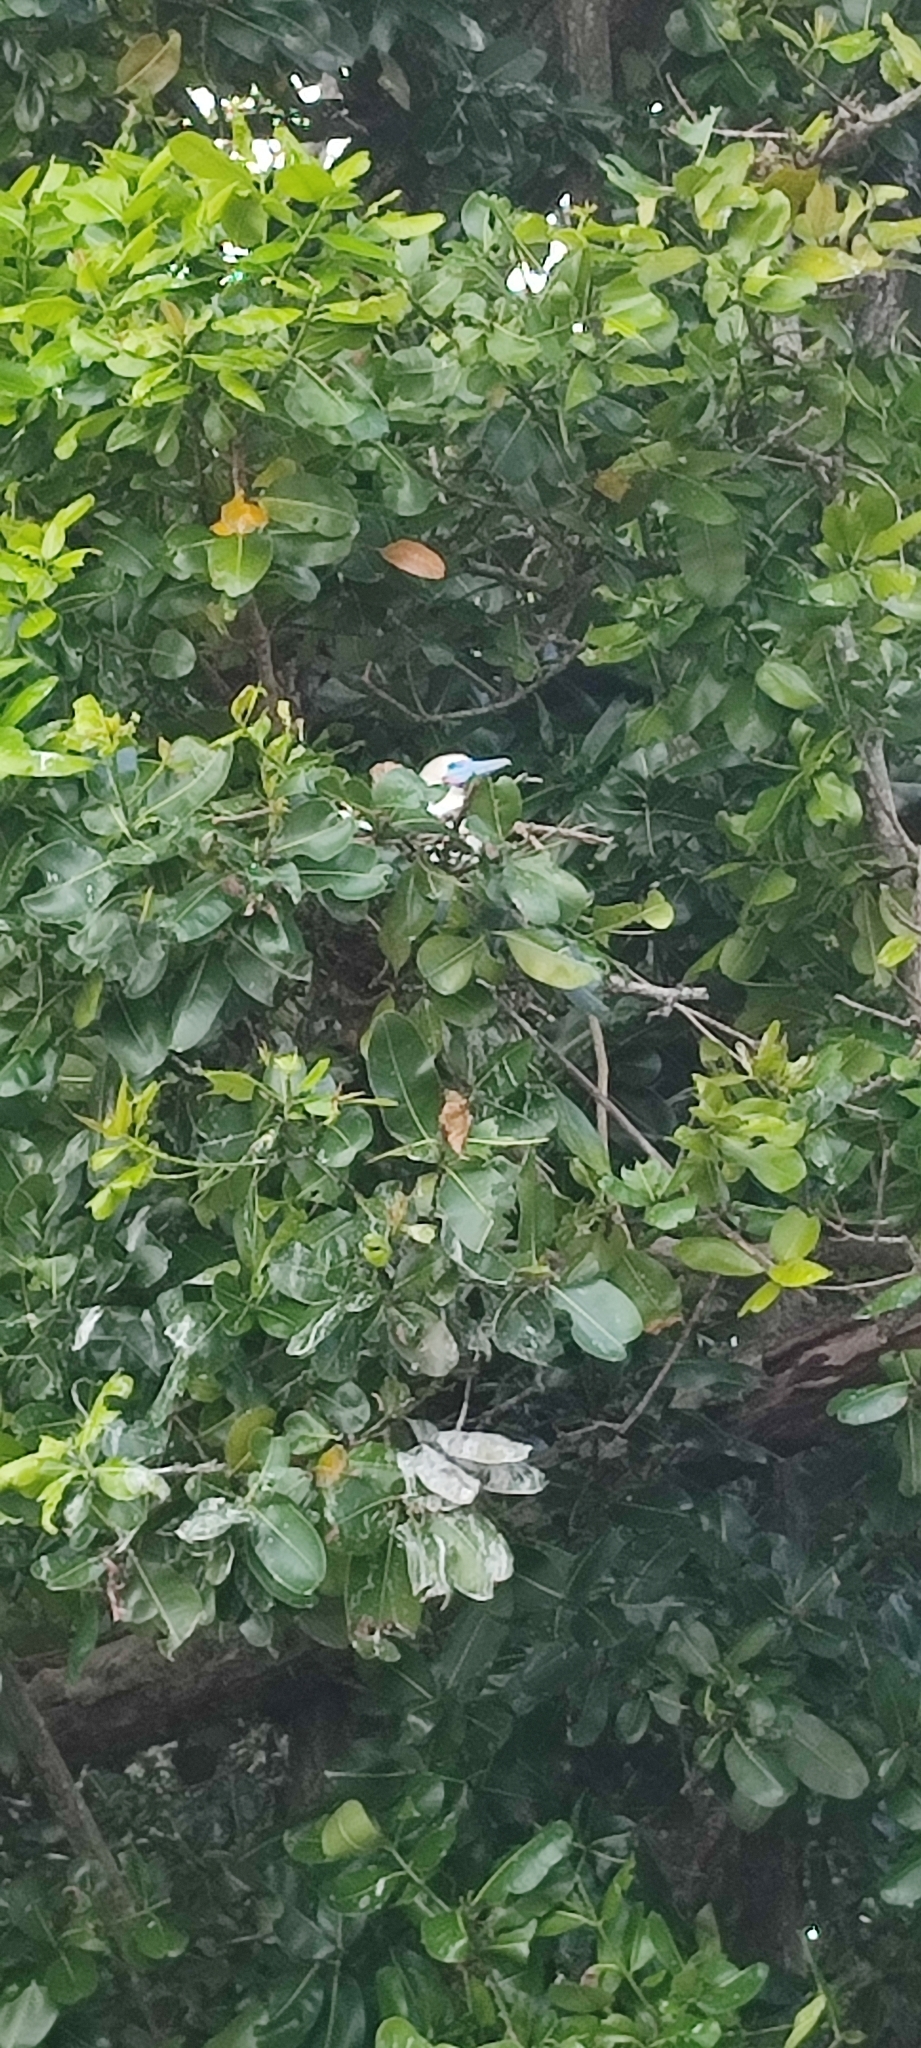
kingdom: Animalia
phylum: Chordata
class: Aves
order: Suliformes
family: Sulidae
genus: Sula
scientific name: Sula sula
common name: Red-footed booby
